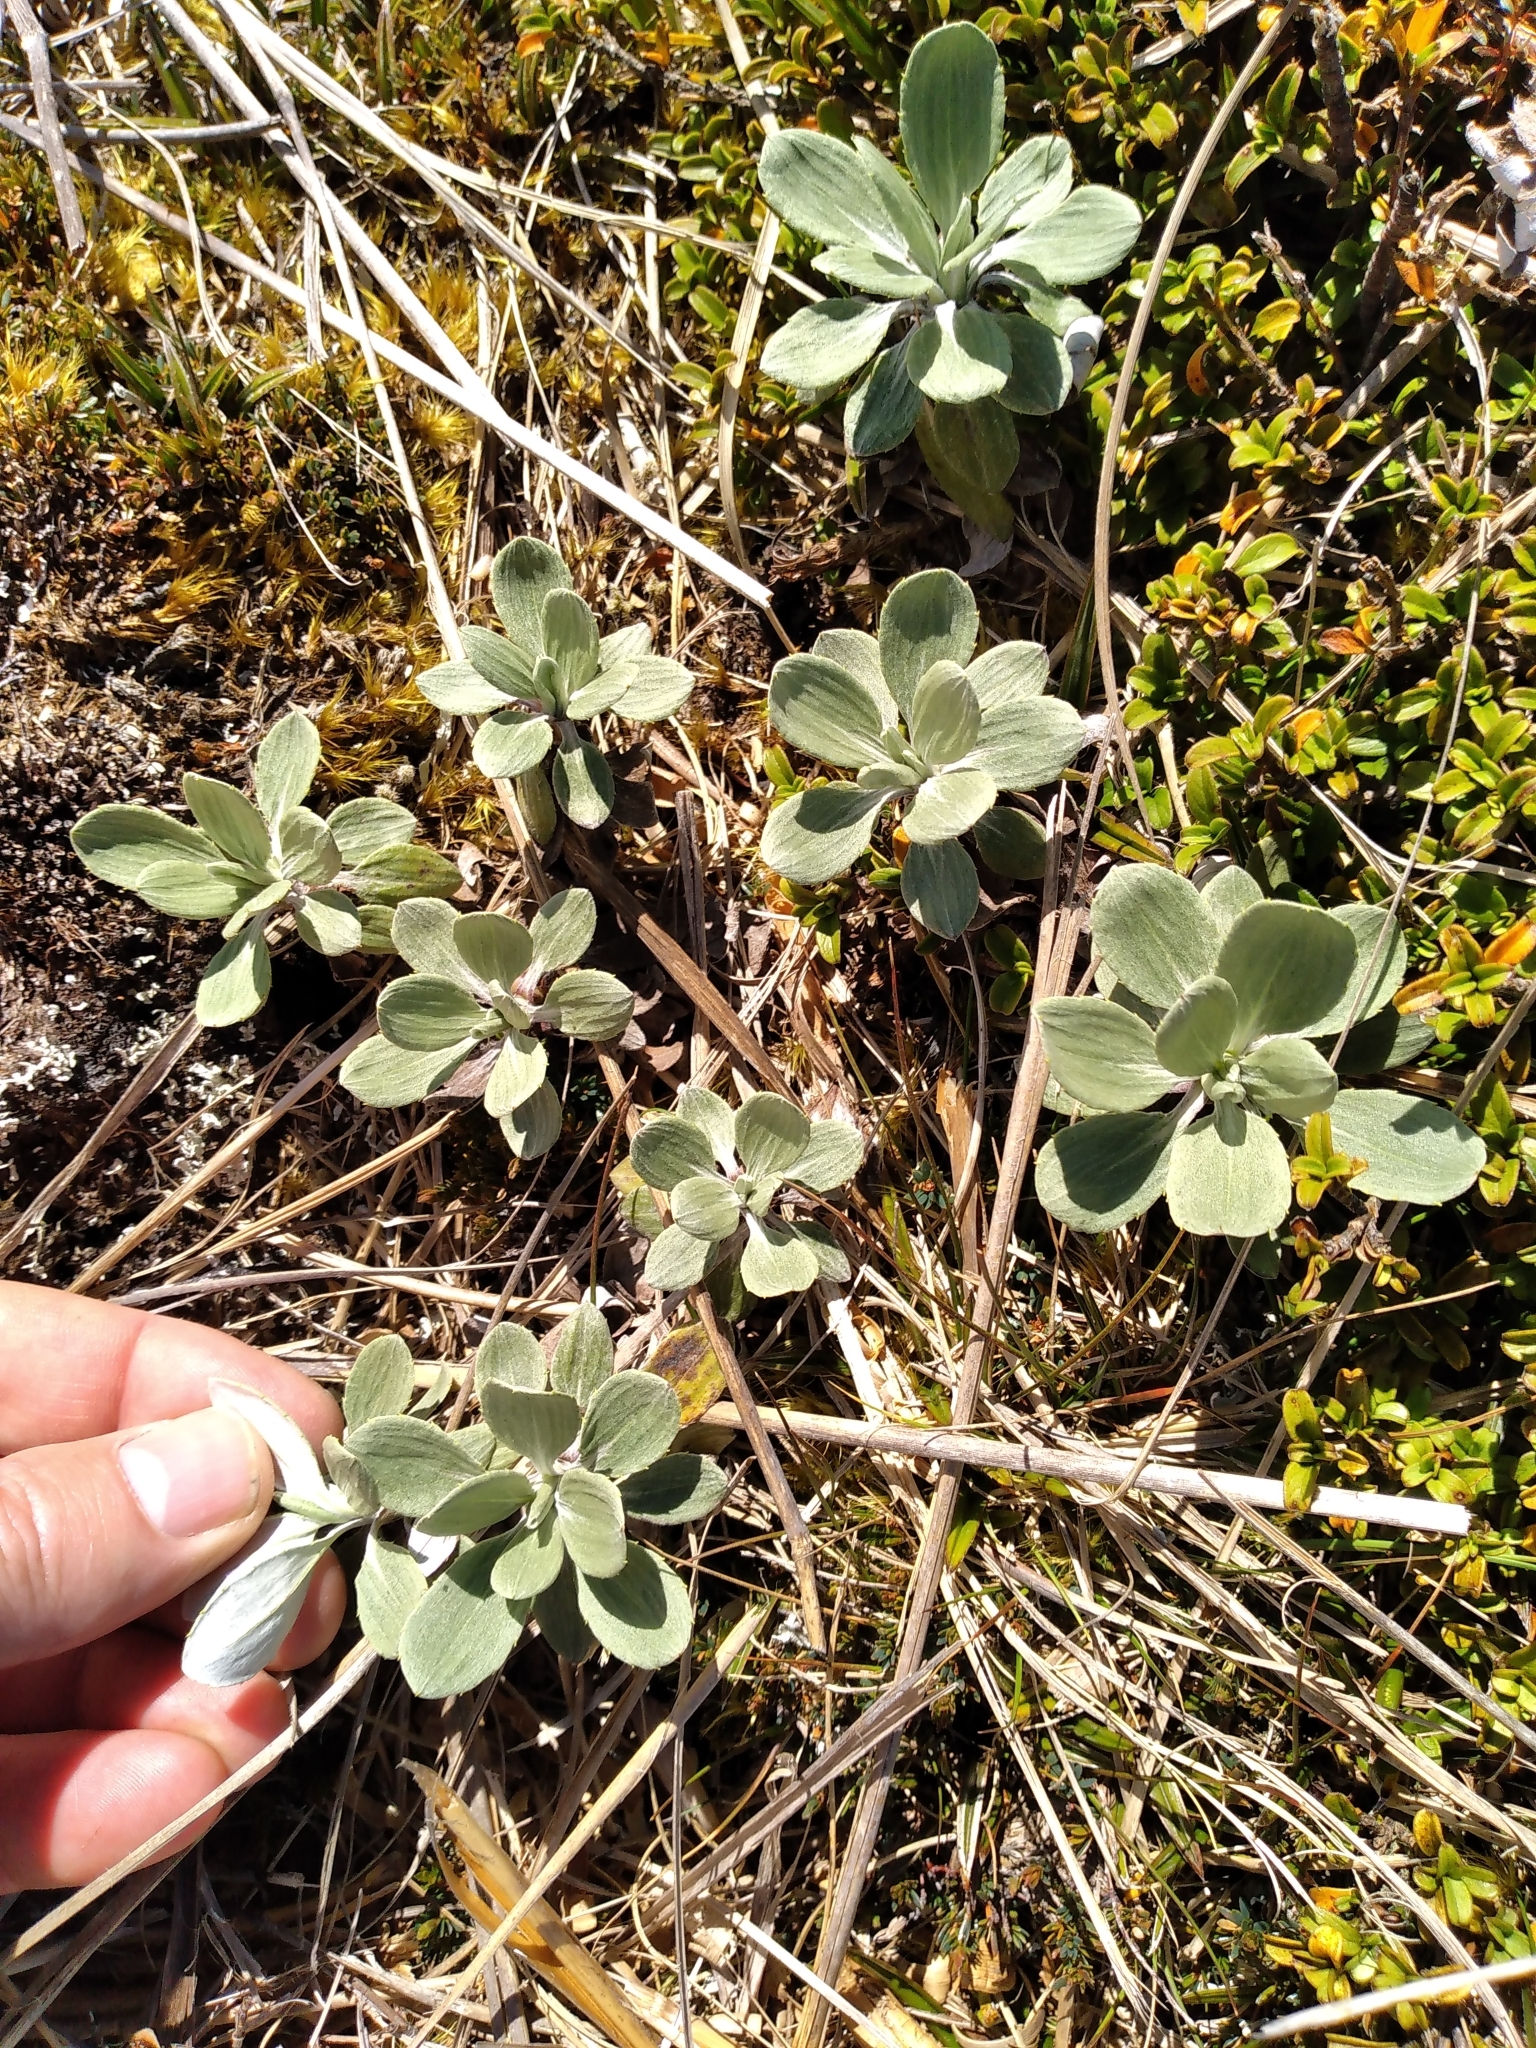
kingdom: Plantae
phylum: Tracheophyta
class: Magnoliopsida
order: Asterales
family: Asteraceae
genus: Celmisia
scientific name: Celmisia discolor
